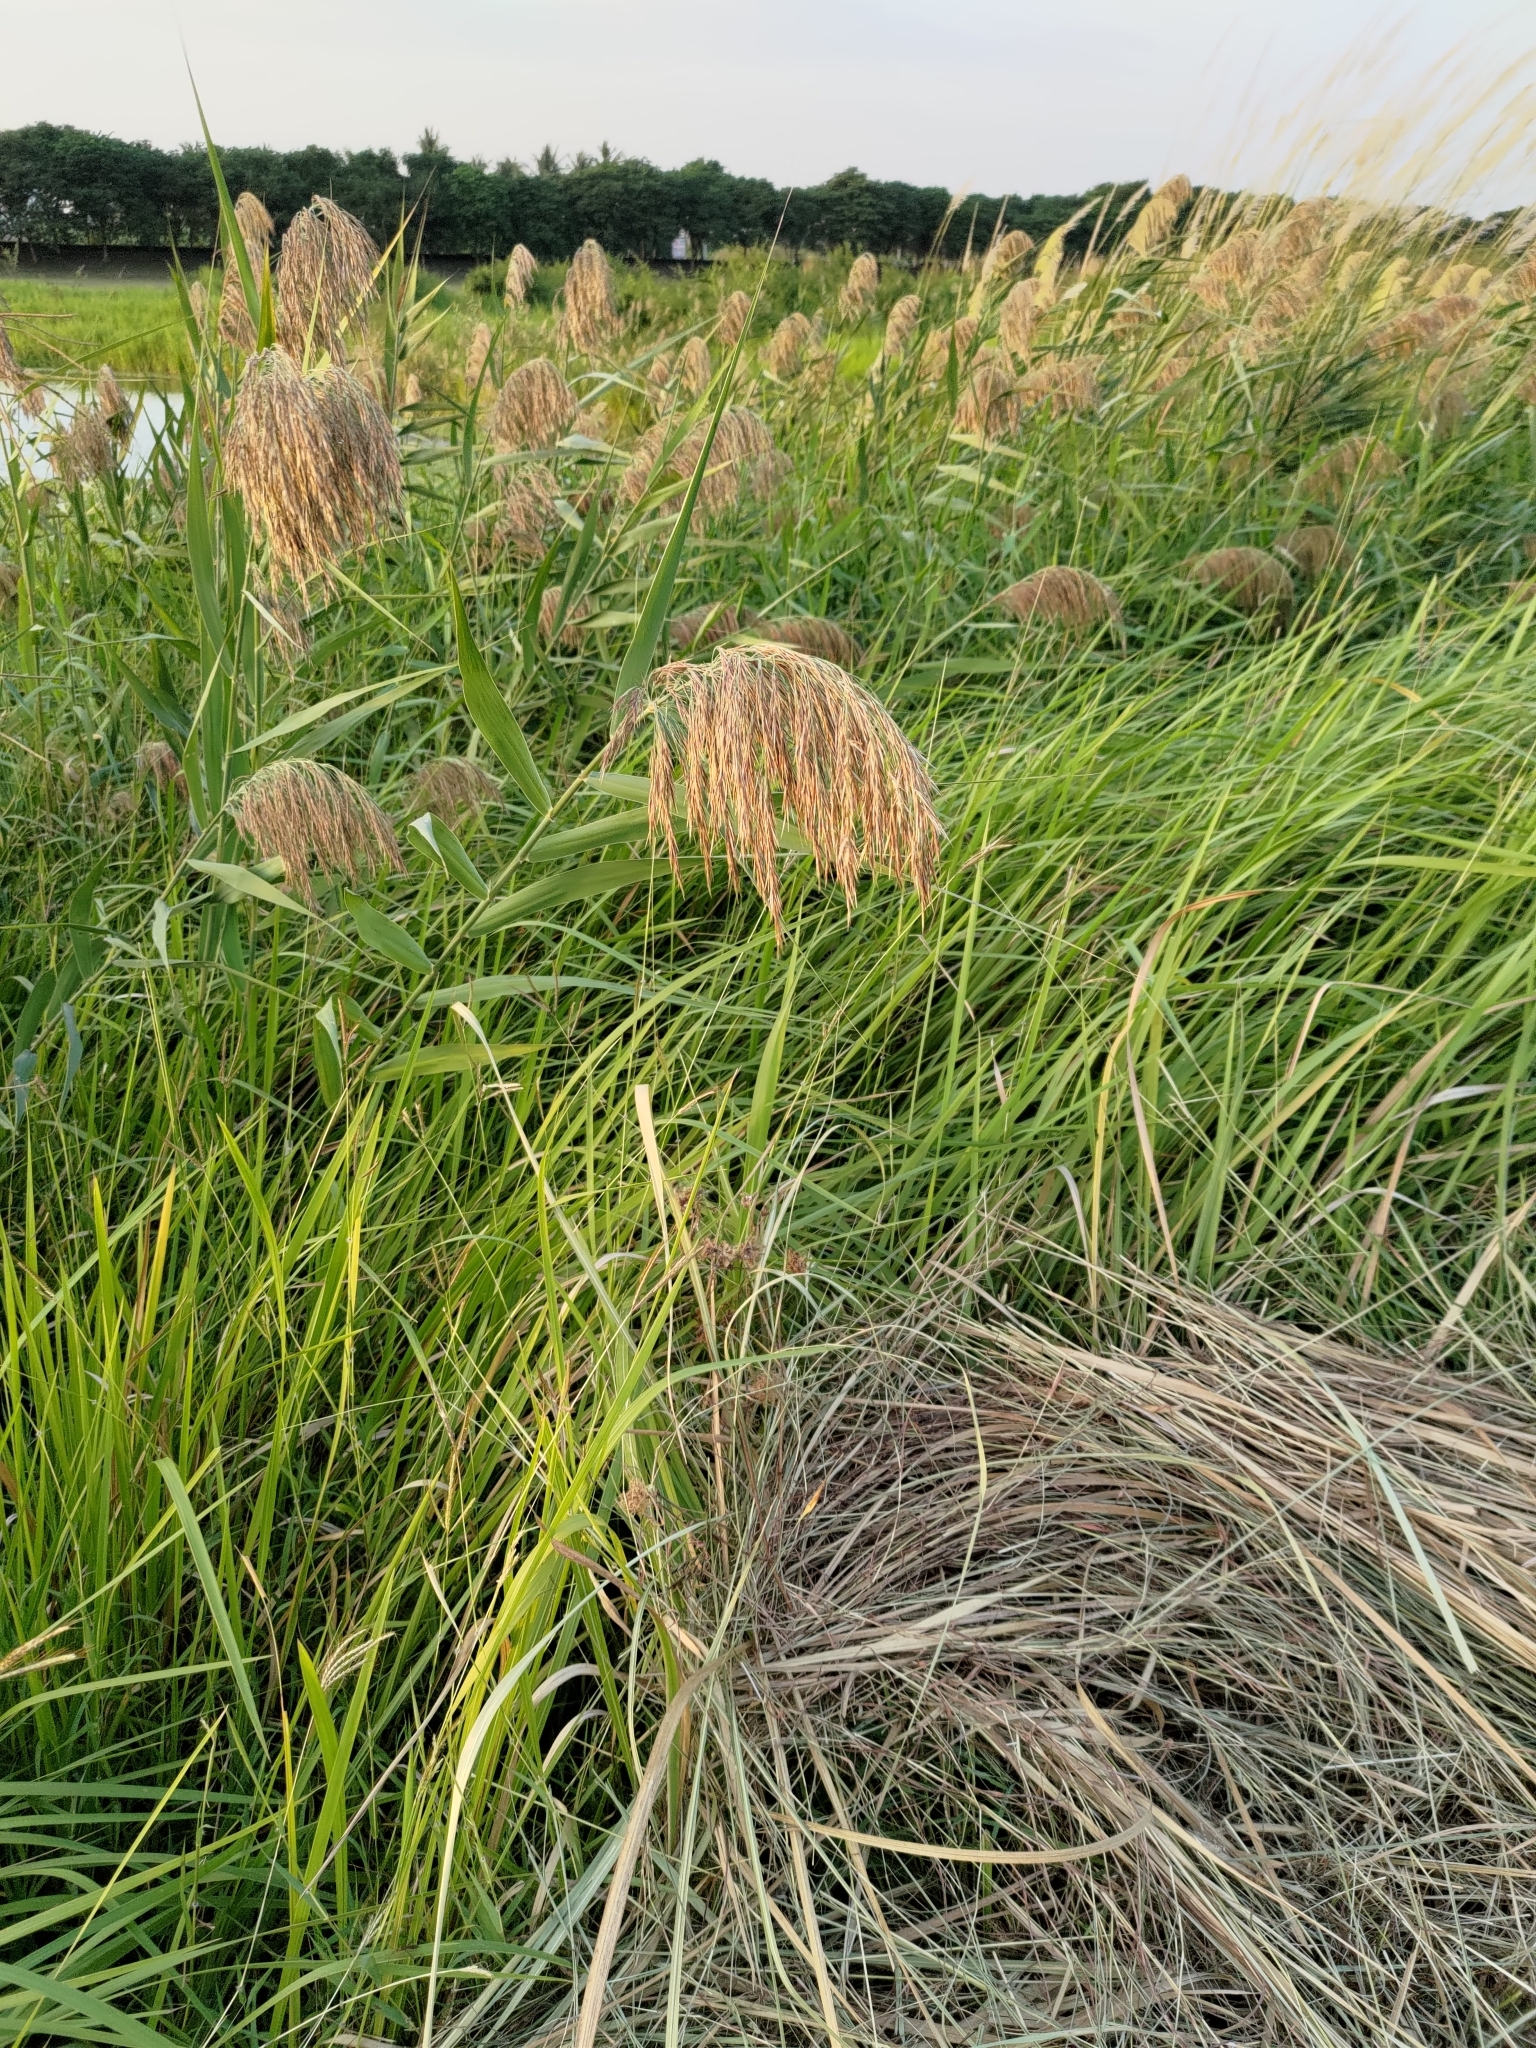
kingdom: Plantae
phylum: Tracheophyta
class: Liliopsida
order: Poales
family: Poaceae
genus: Phragmites
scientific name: Phragmites australis
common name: Common reed
